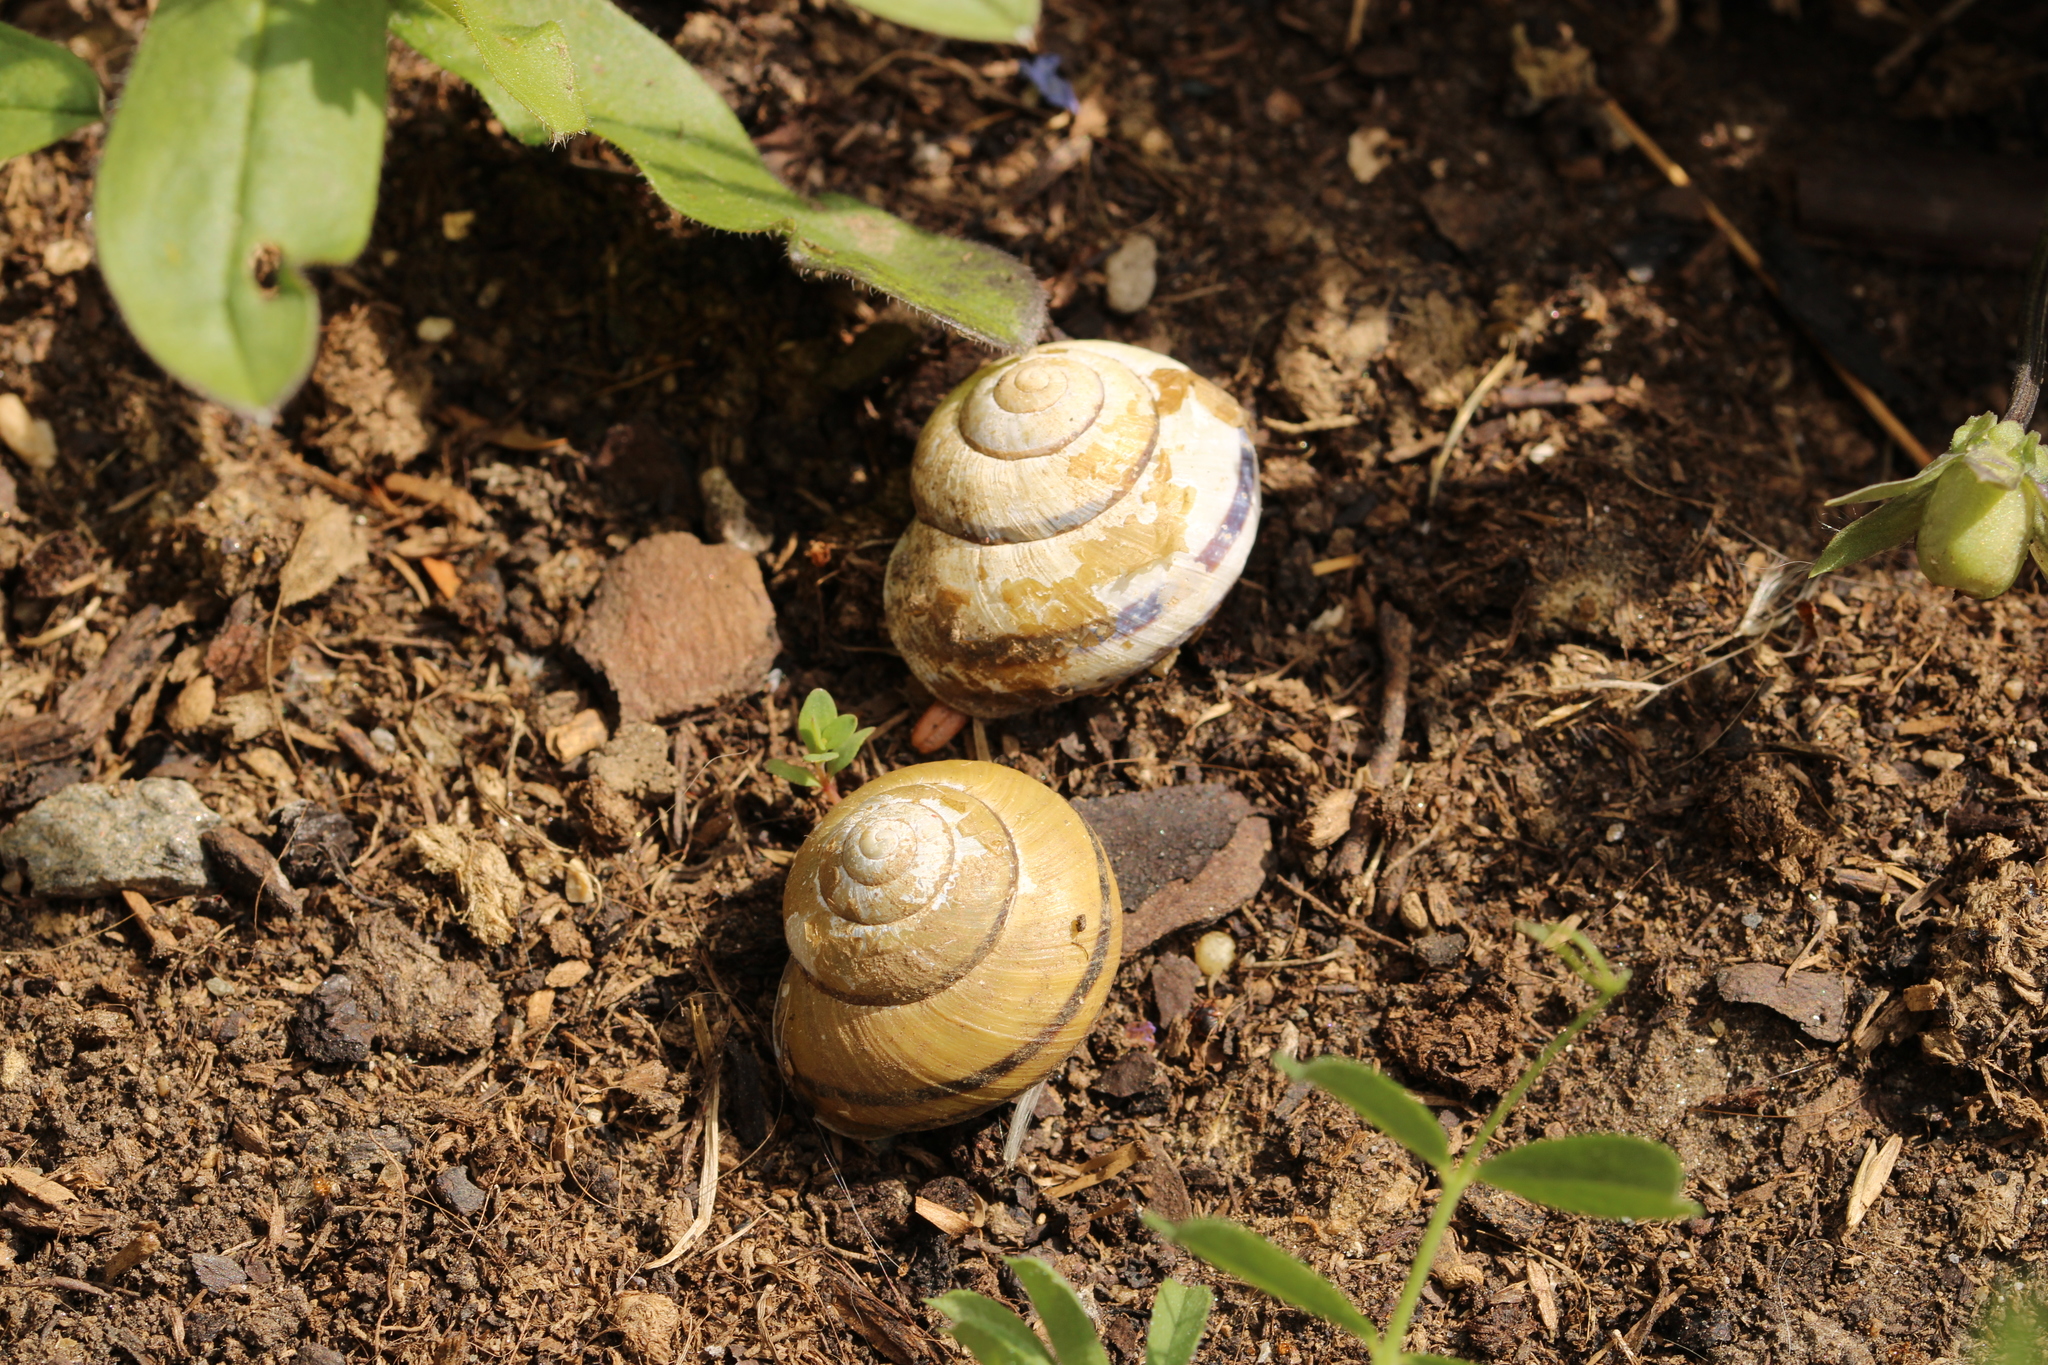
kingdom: Animalia
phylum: Mollusca
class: Gastropoda
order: Stylommatophora
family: Helicidae
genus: Cepaea
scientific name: Cepaea nemoralis
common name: Grovesnail
